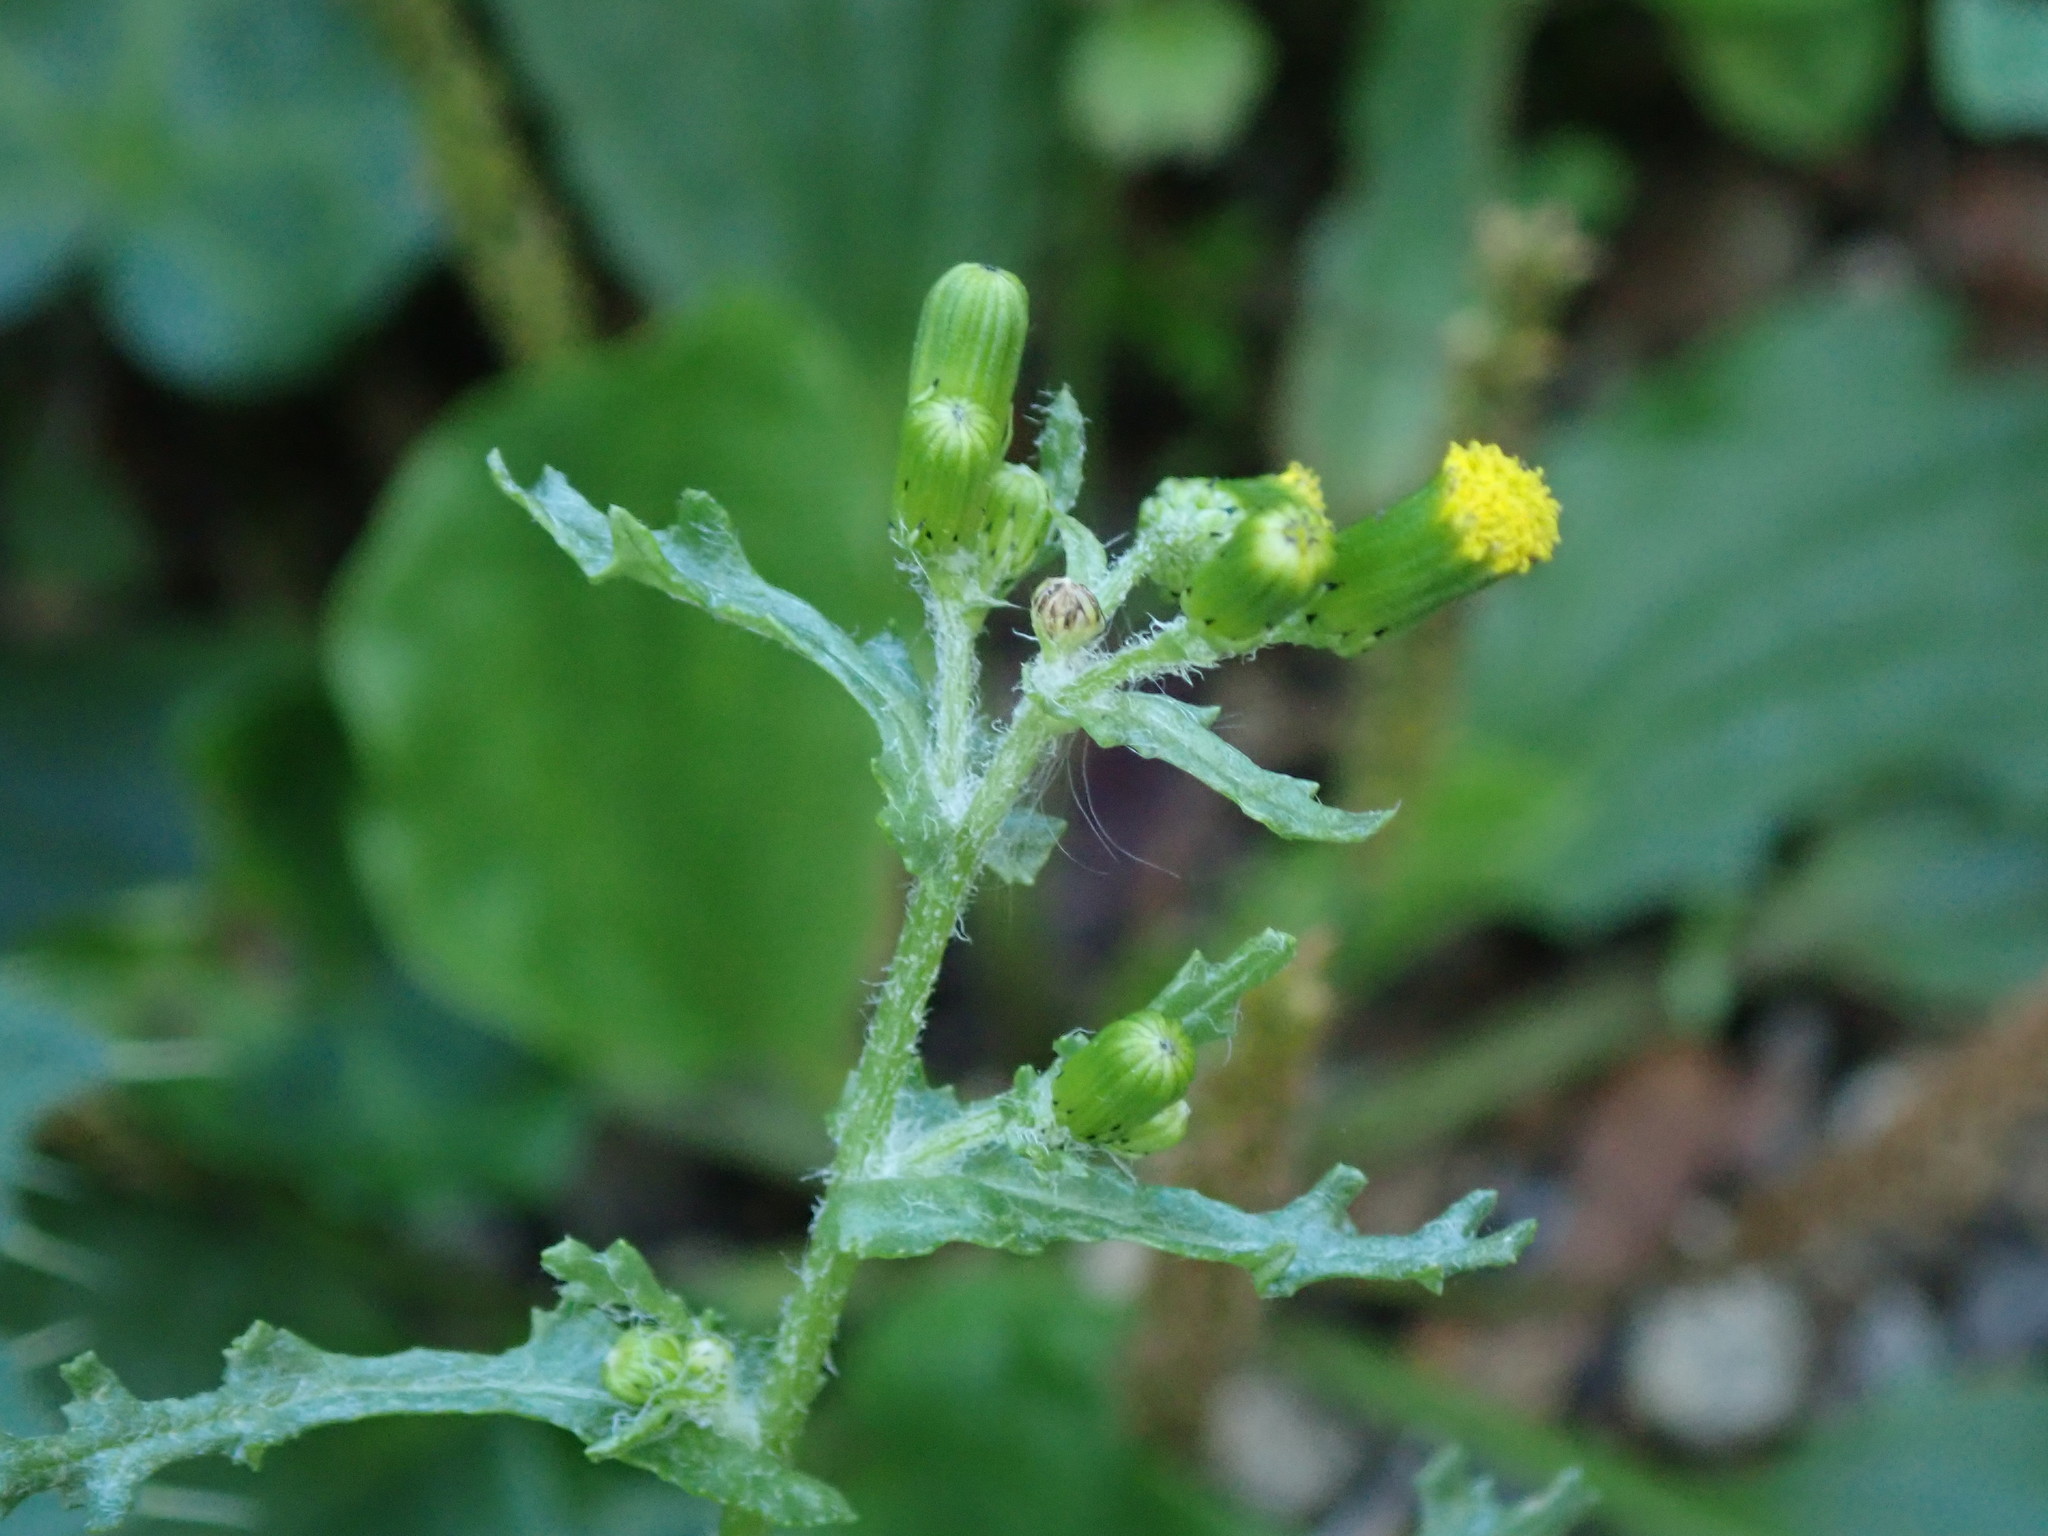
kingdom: Plantae
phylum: Tracheophyta
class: Magnoliopsida
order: Asterales
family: Asteraceae
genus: Senecio
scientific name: Senecio vulgaris
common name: Old-man-in-the-spring
